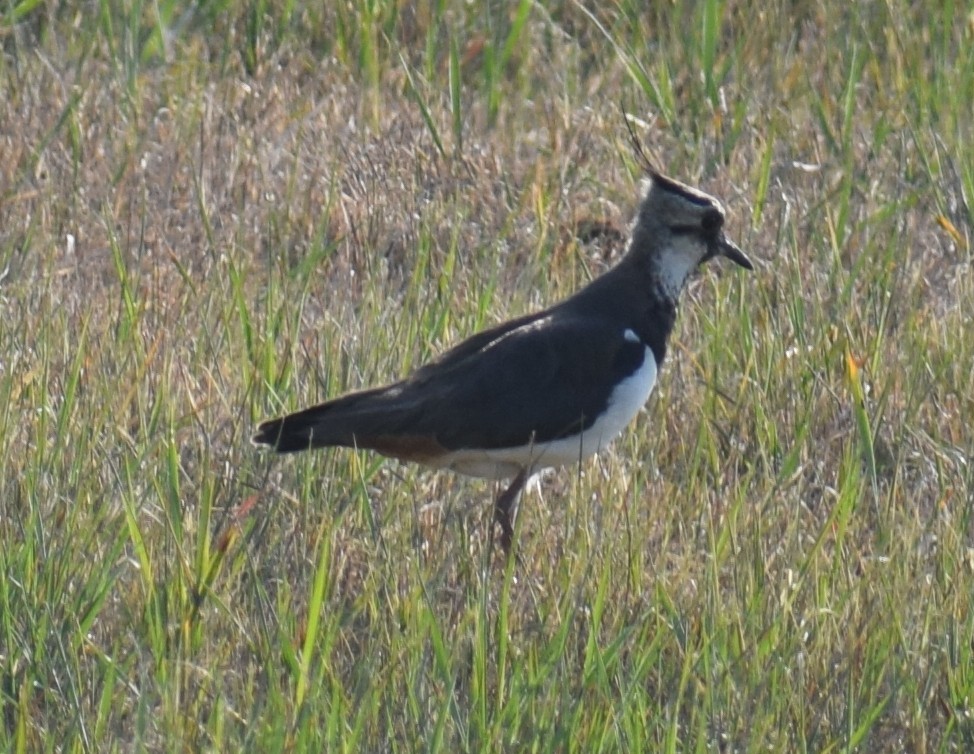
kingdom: Animalia
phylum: Chordata
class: Aves
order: Charadriiformes
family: Charadriidae
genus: Vanellus
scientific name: Vanellus vanellus
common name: Northern lapwing
